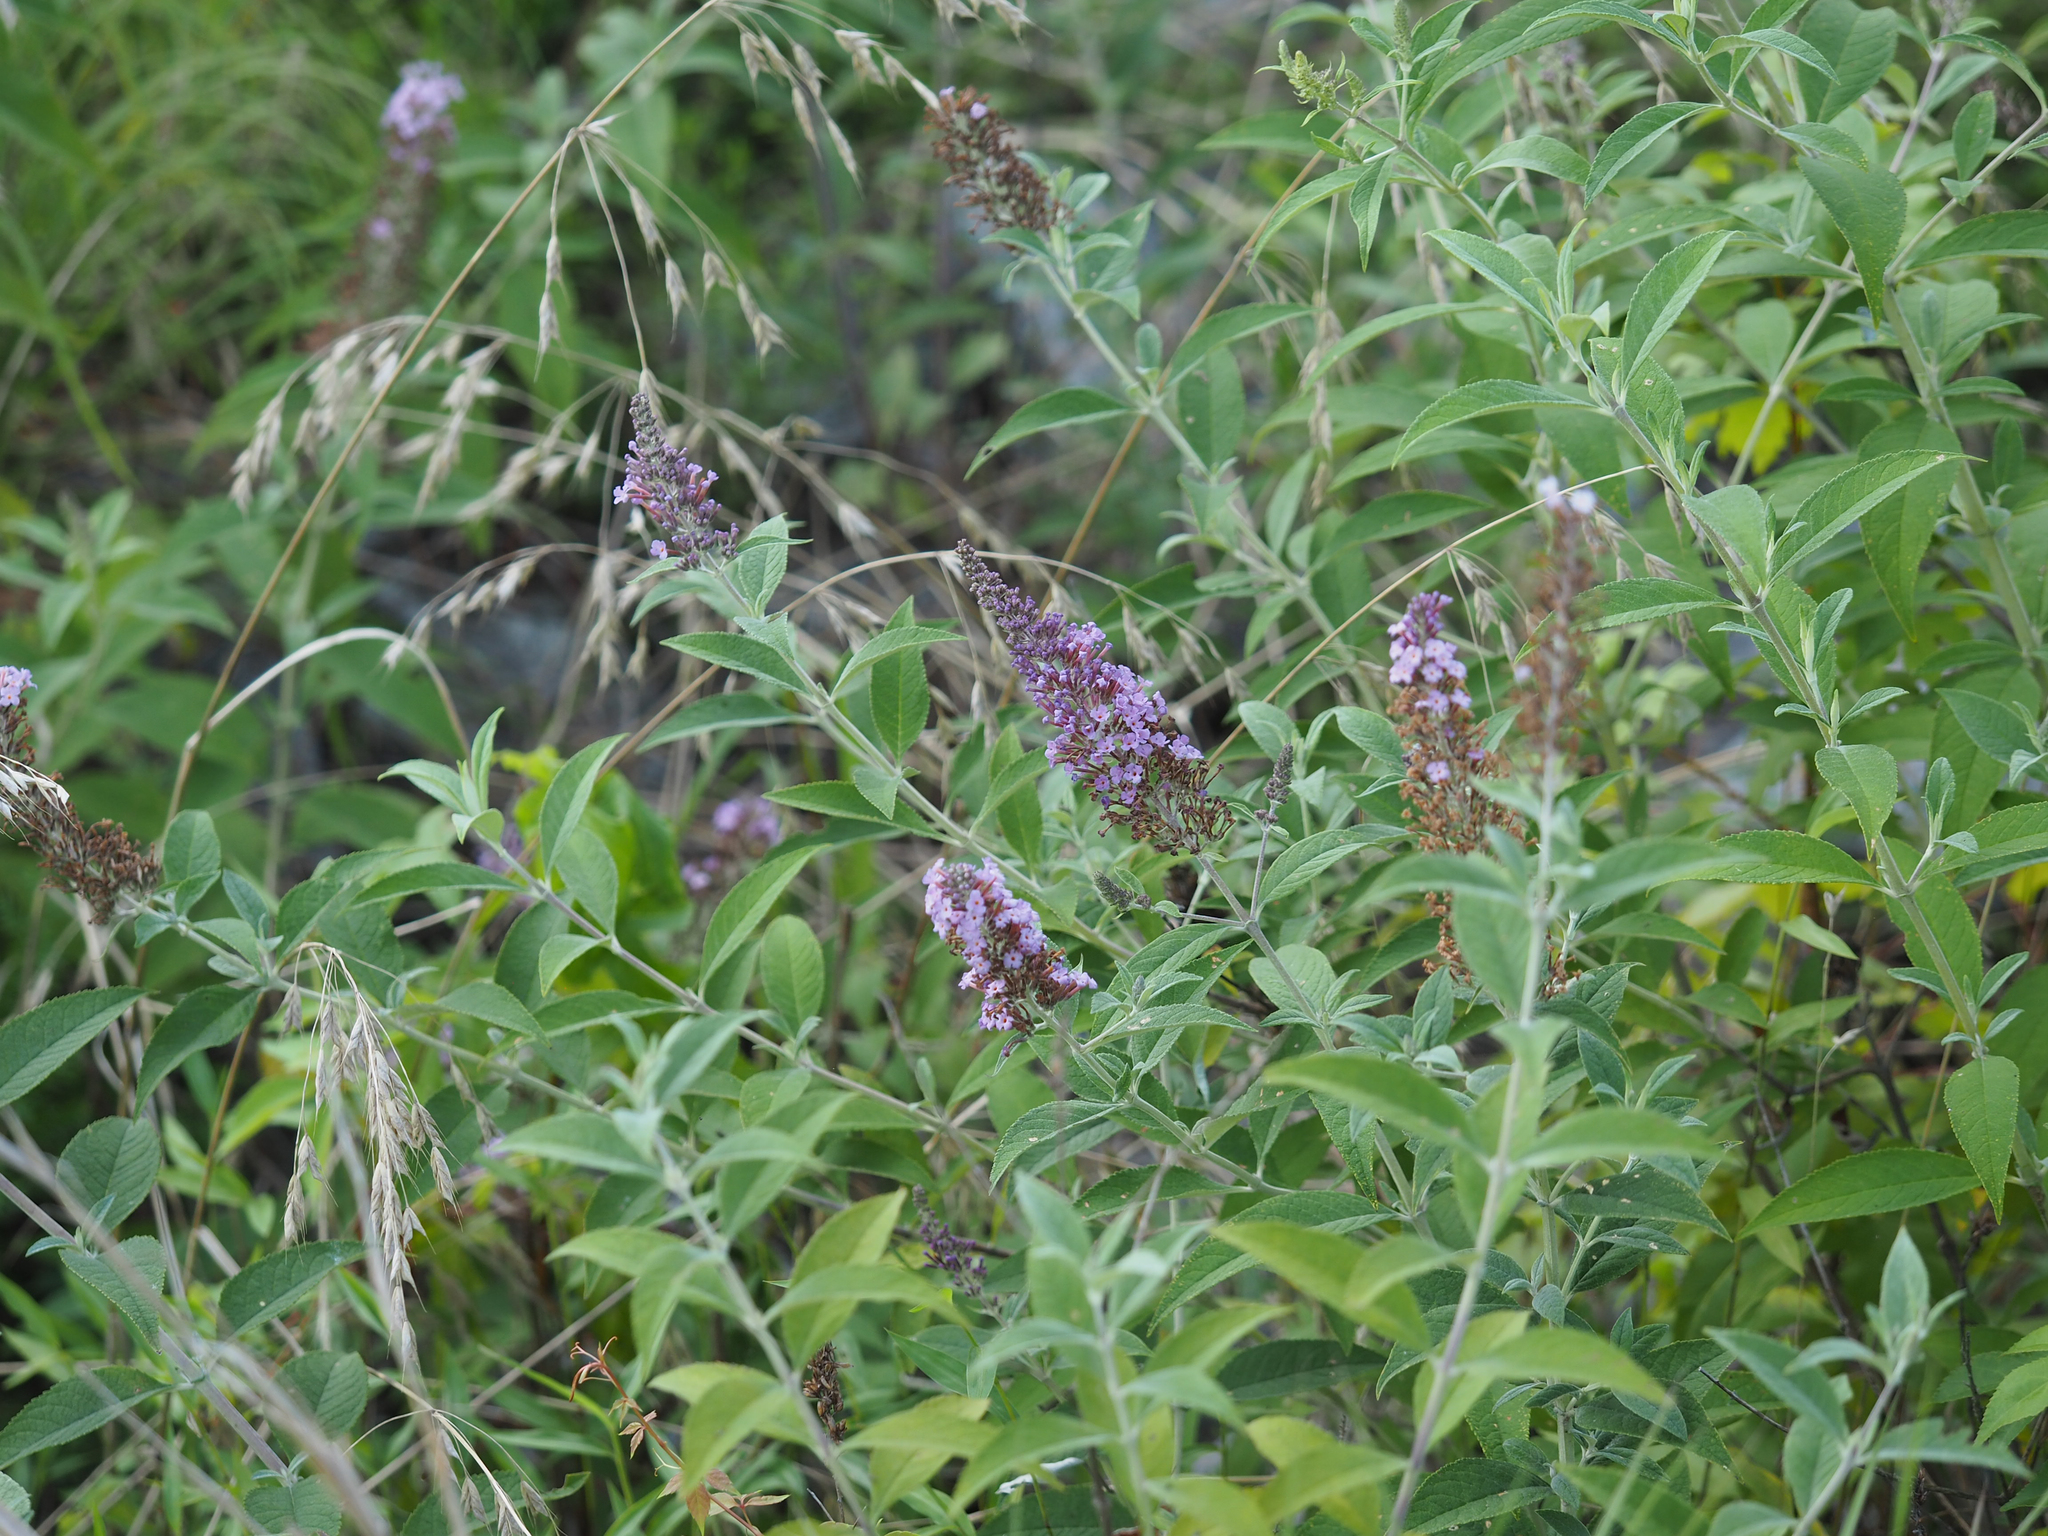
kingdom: Plantae
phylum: Tracheophyta
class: Magnoliopsida
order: Lamiales
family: Scrophulariaceae
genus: Buddleja
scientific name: Buddleja davidii
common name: Butterfly-bush
